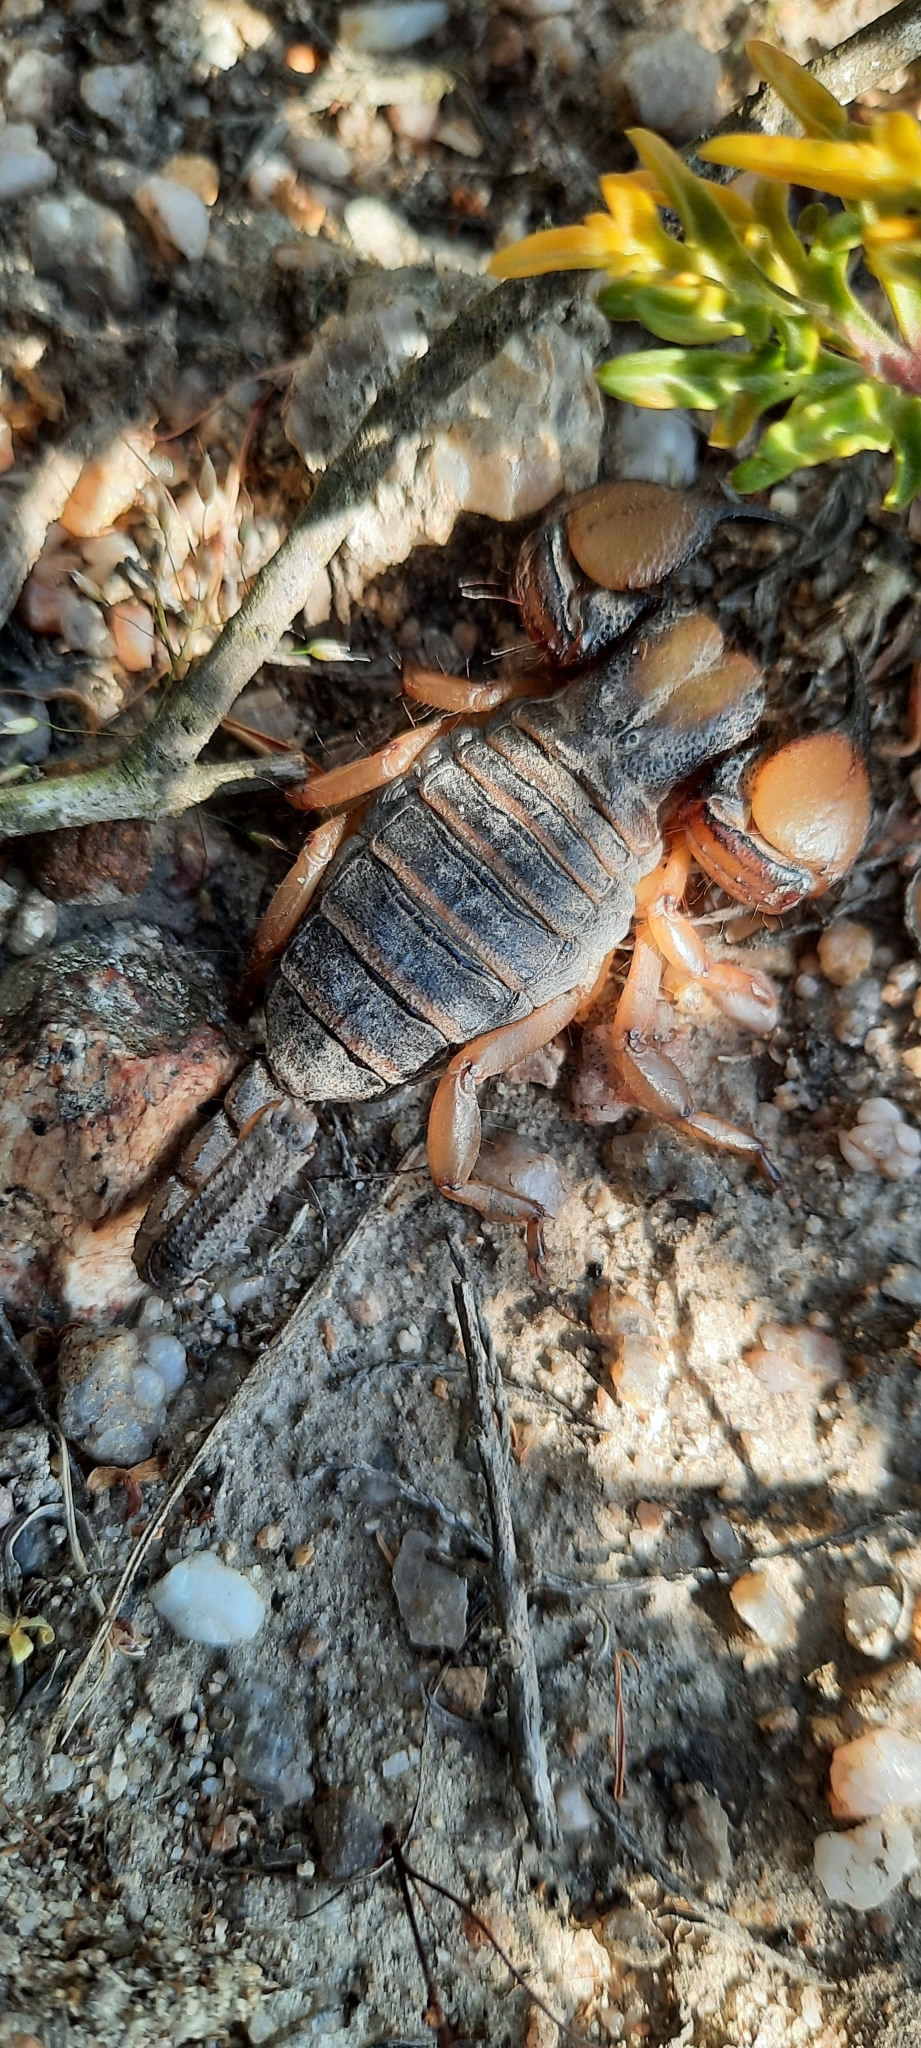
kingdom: Animalia
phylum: Arthropoda
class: Arachnida
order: Scorpiones
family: Scorpionidae
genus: Opistophthalmus
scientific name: Opistophthalmus capensis
